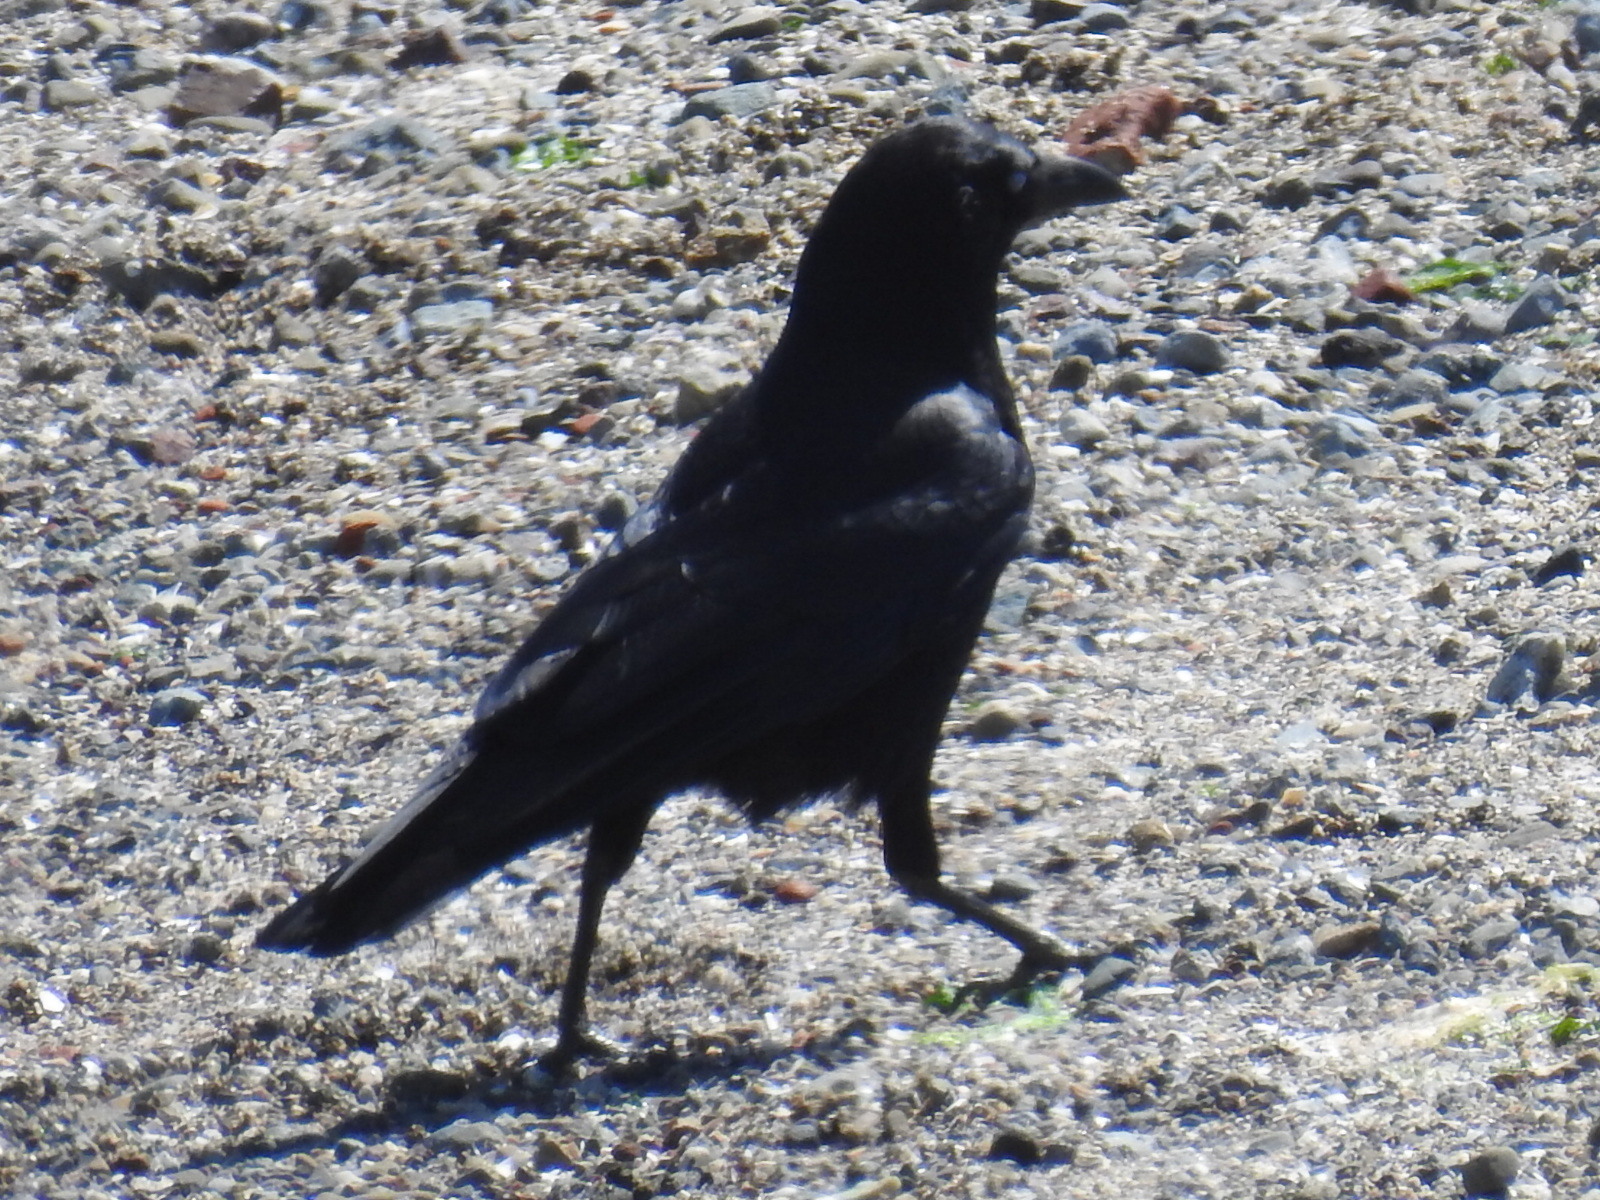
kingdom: Animalia
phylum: Chordata
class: Aves
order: Passeriformes
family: Corvidae
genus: Corvus
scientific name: Corvus brachyrhynchos
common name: American crow
